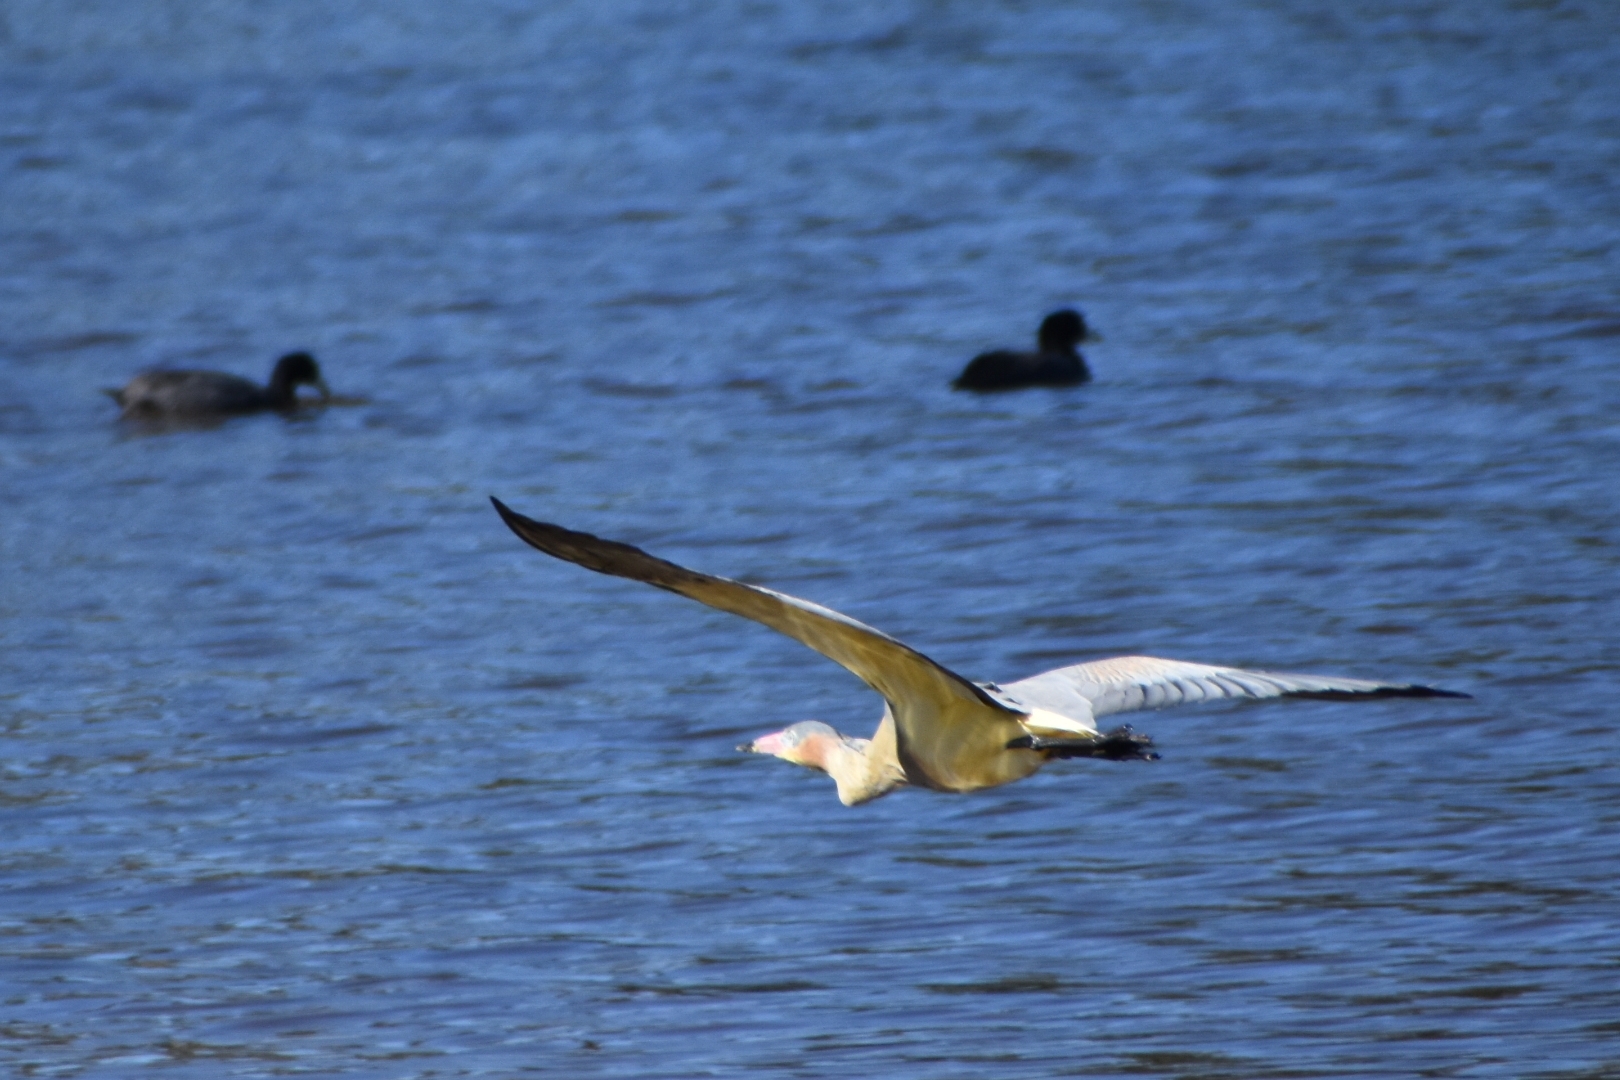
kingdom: Animalia
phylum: Chordata
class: Aves
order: Pelecaniformes
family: Ardeidae
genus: Syrigma
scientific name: Syrigma sibilatrix
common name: Whistling heron
